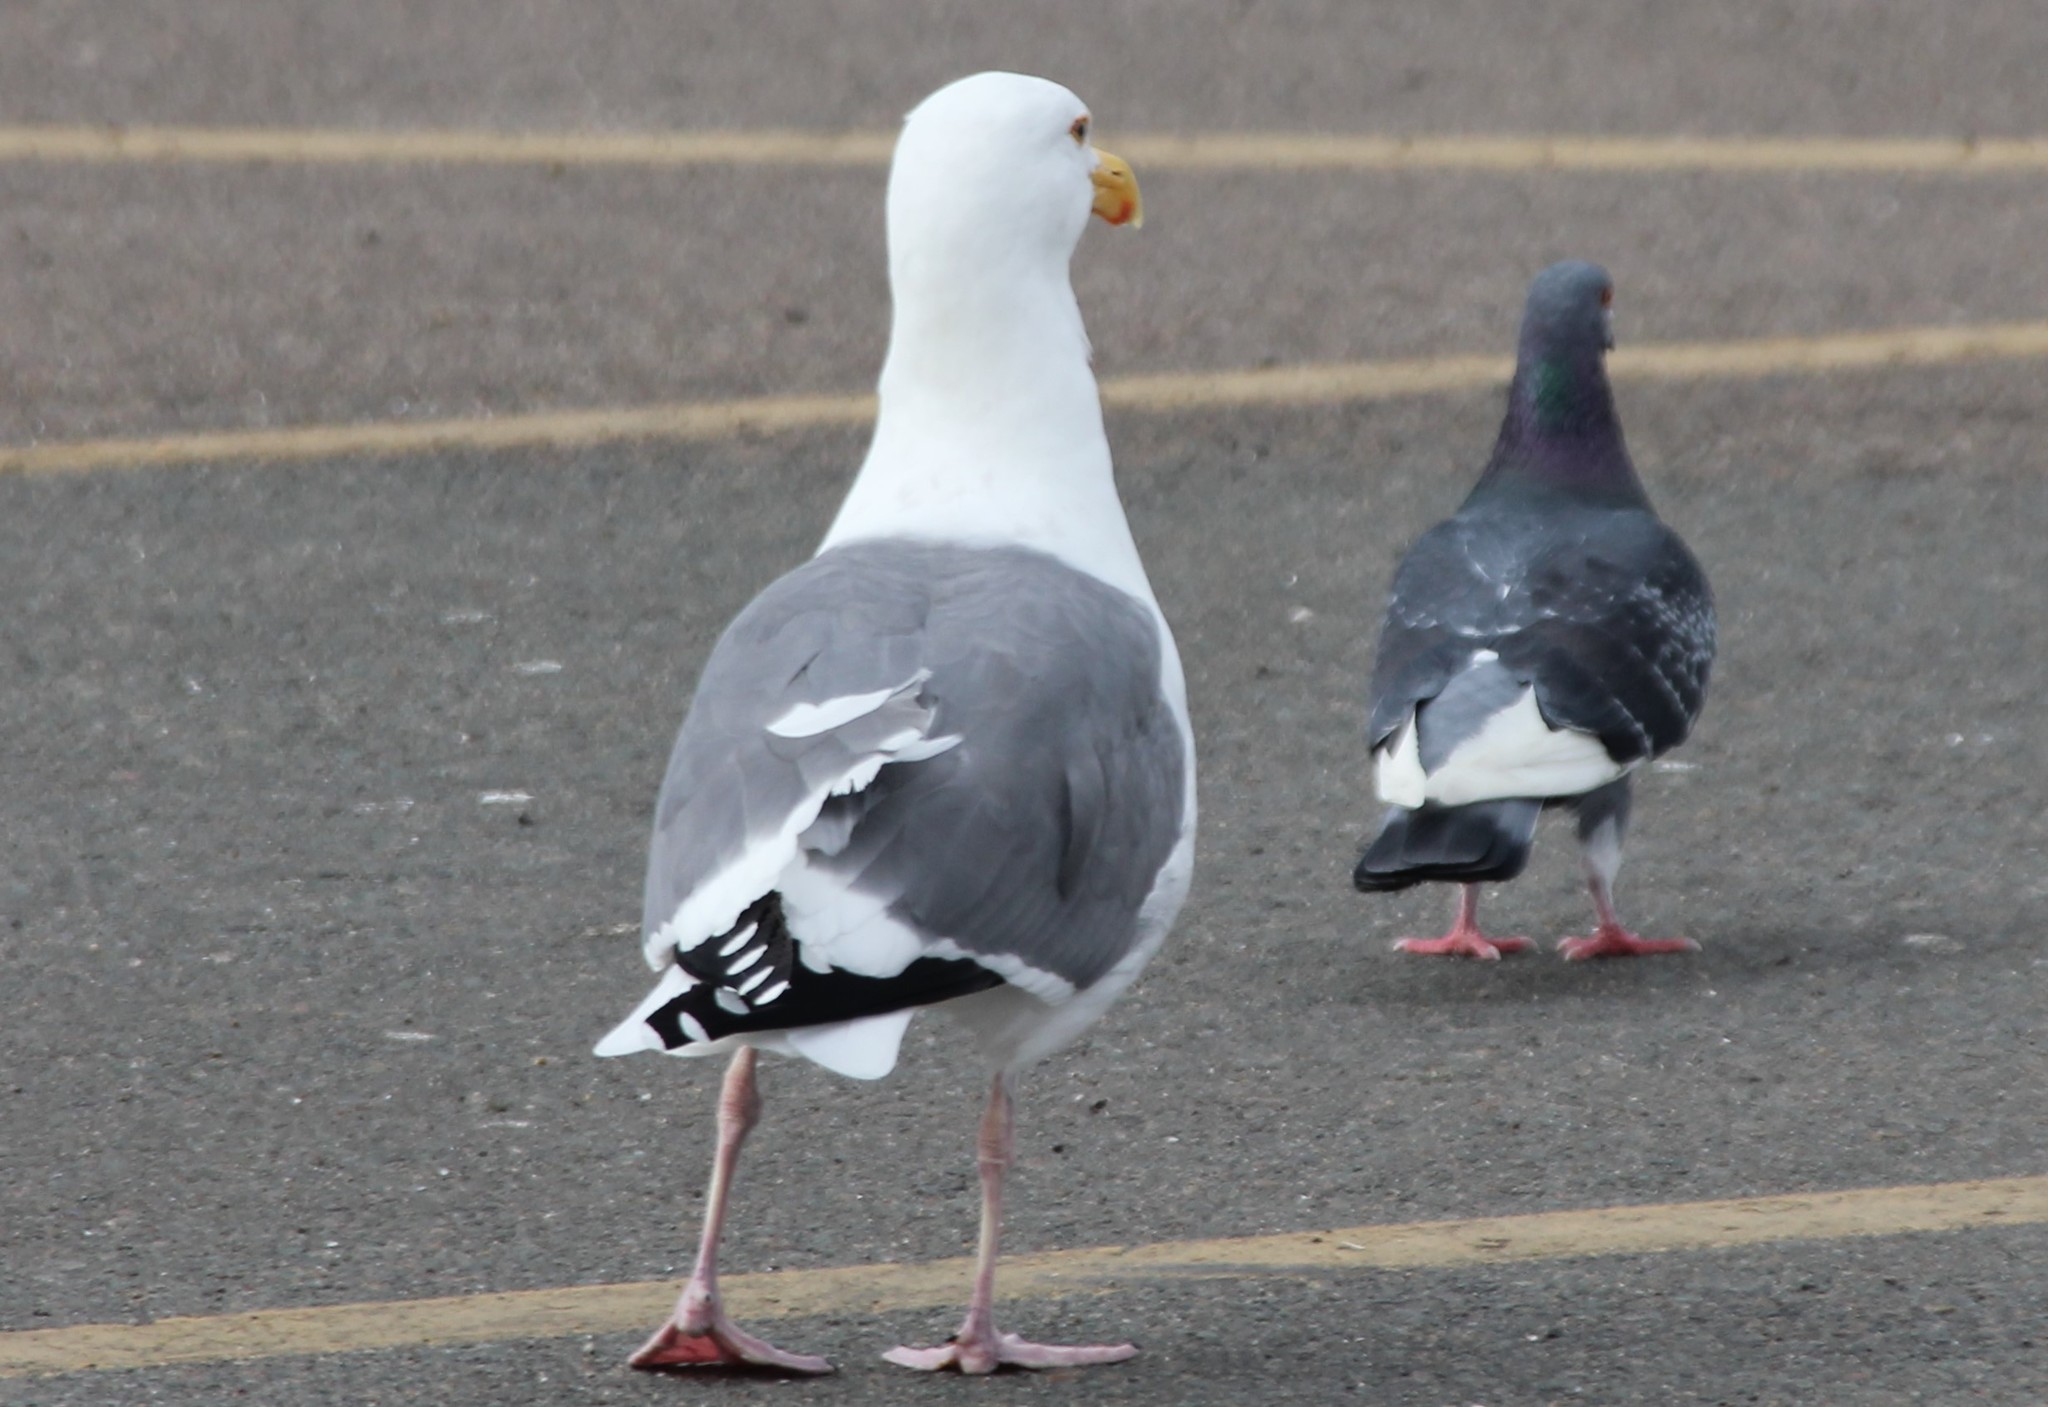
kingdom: Animalia
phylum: Chordata
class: Aves
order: Charadriiformes
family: Laridae
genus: Larus
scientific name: Larus occidentalis
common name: Western gull
